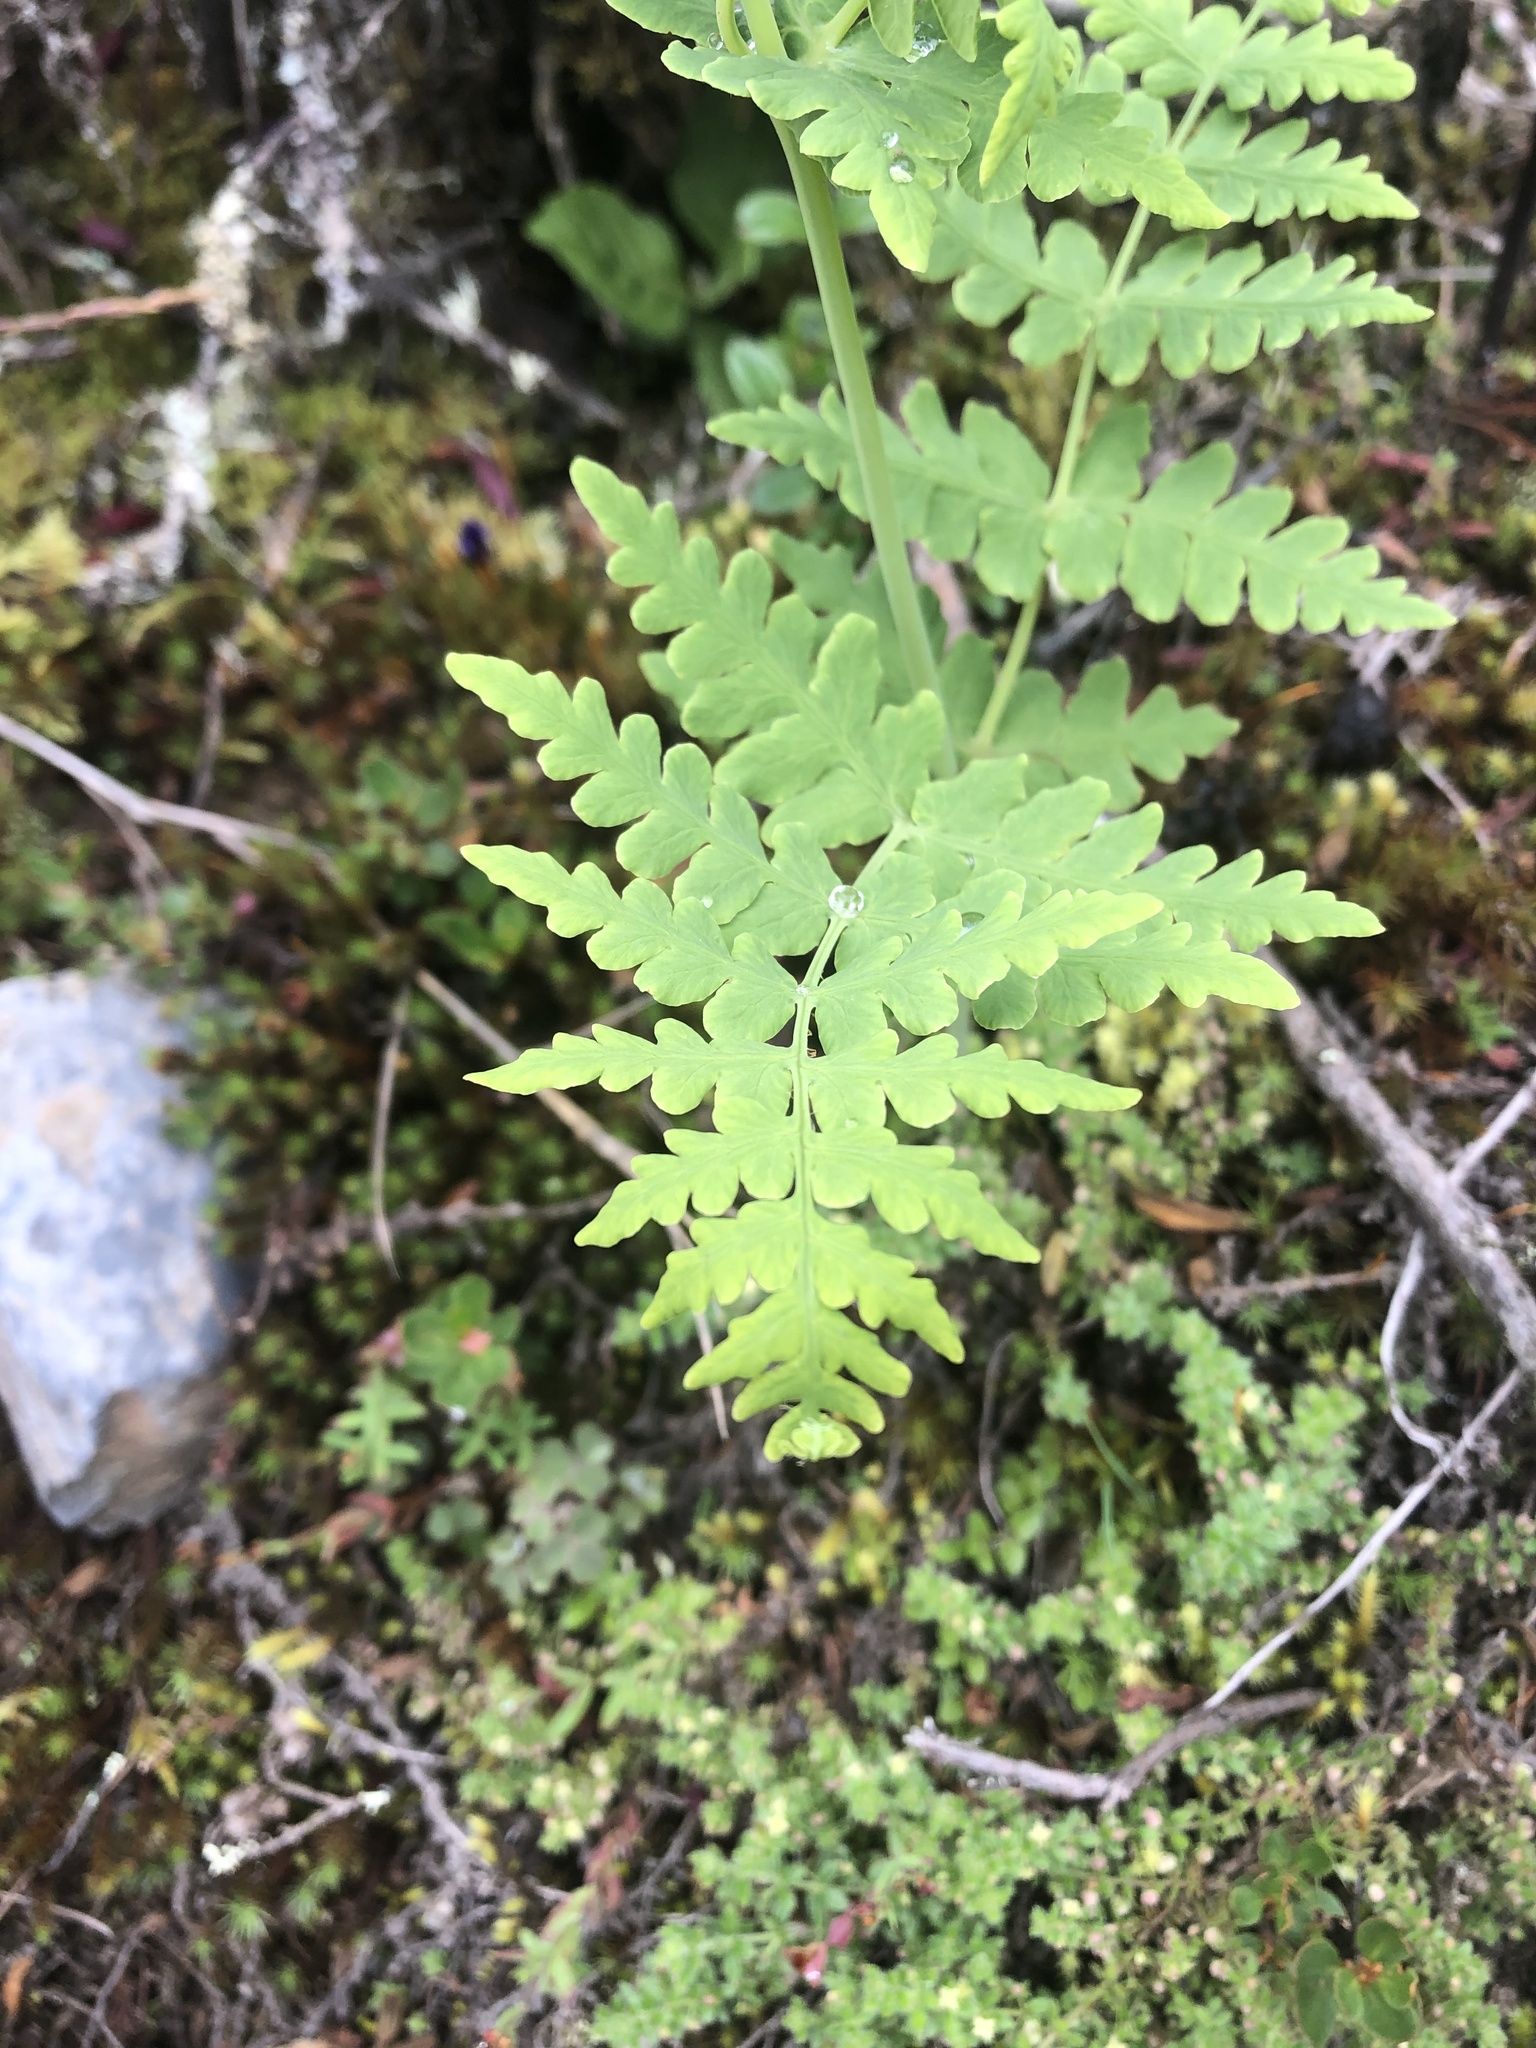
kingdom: Plantae
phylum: Tracheophyta
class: Polypodiopsida
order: Polypodiales
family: Dennstaedtiaceae
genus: Histiopteris
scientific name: Histiopteris incisa
